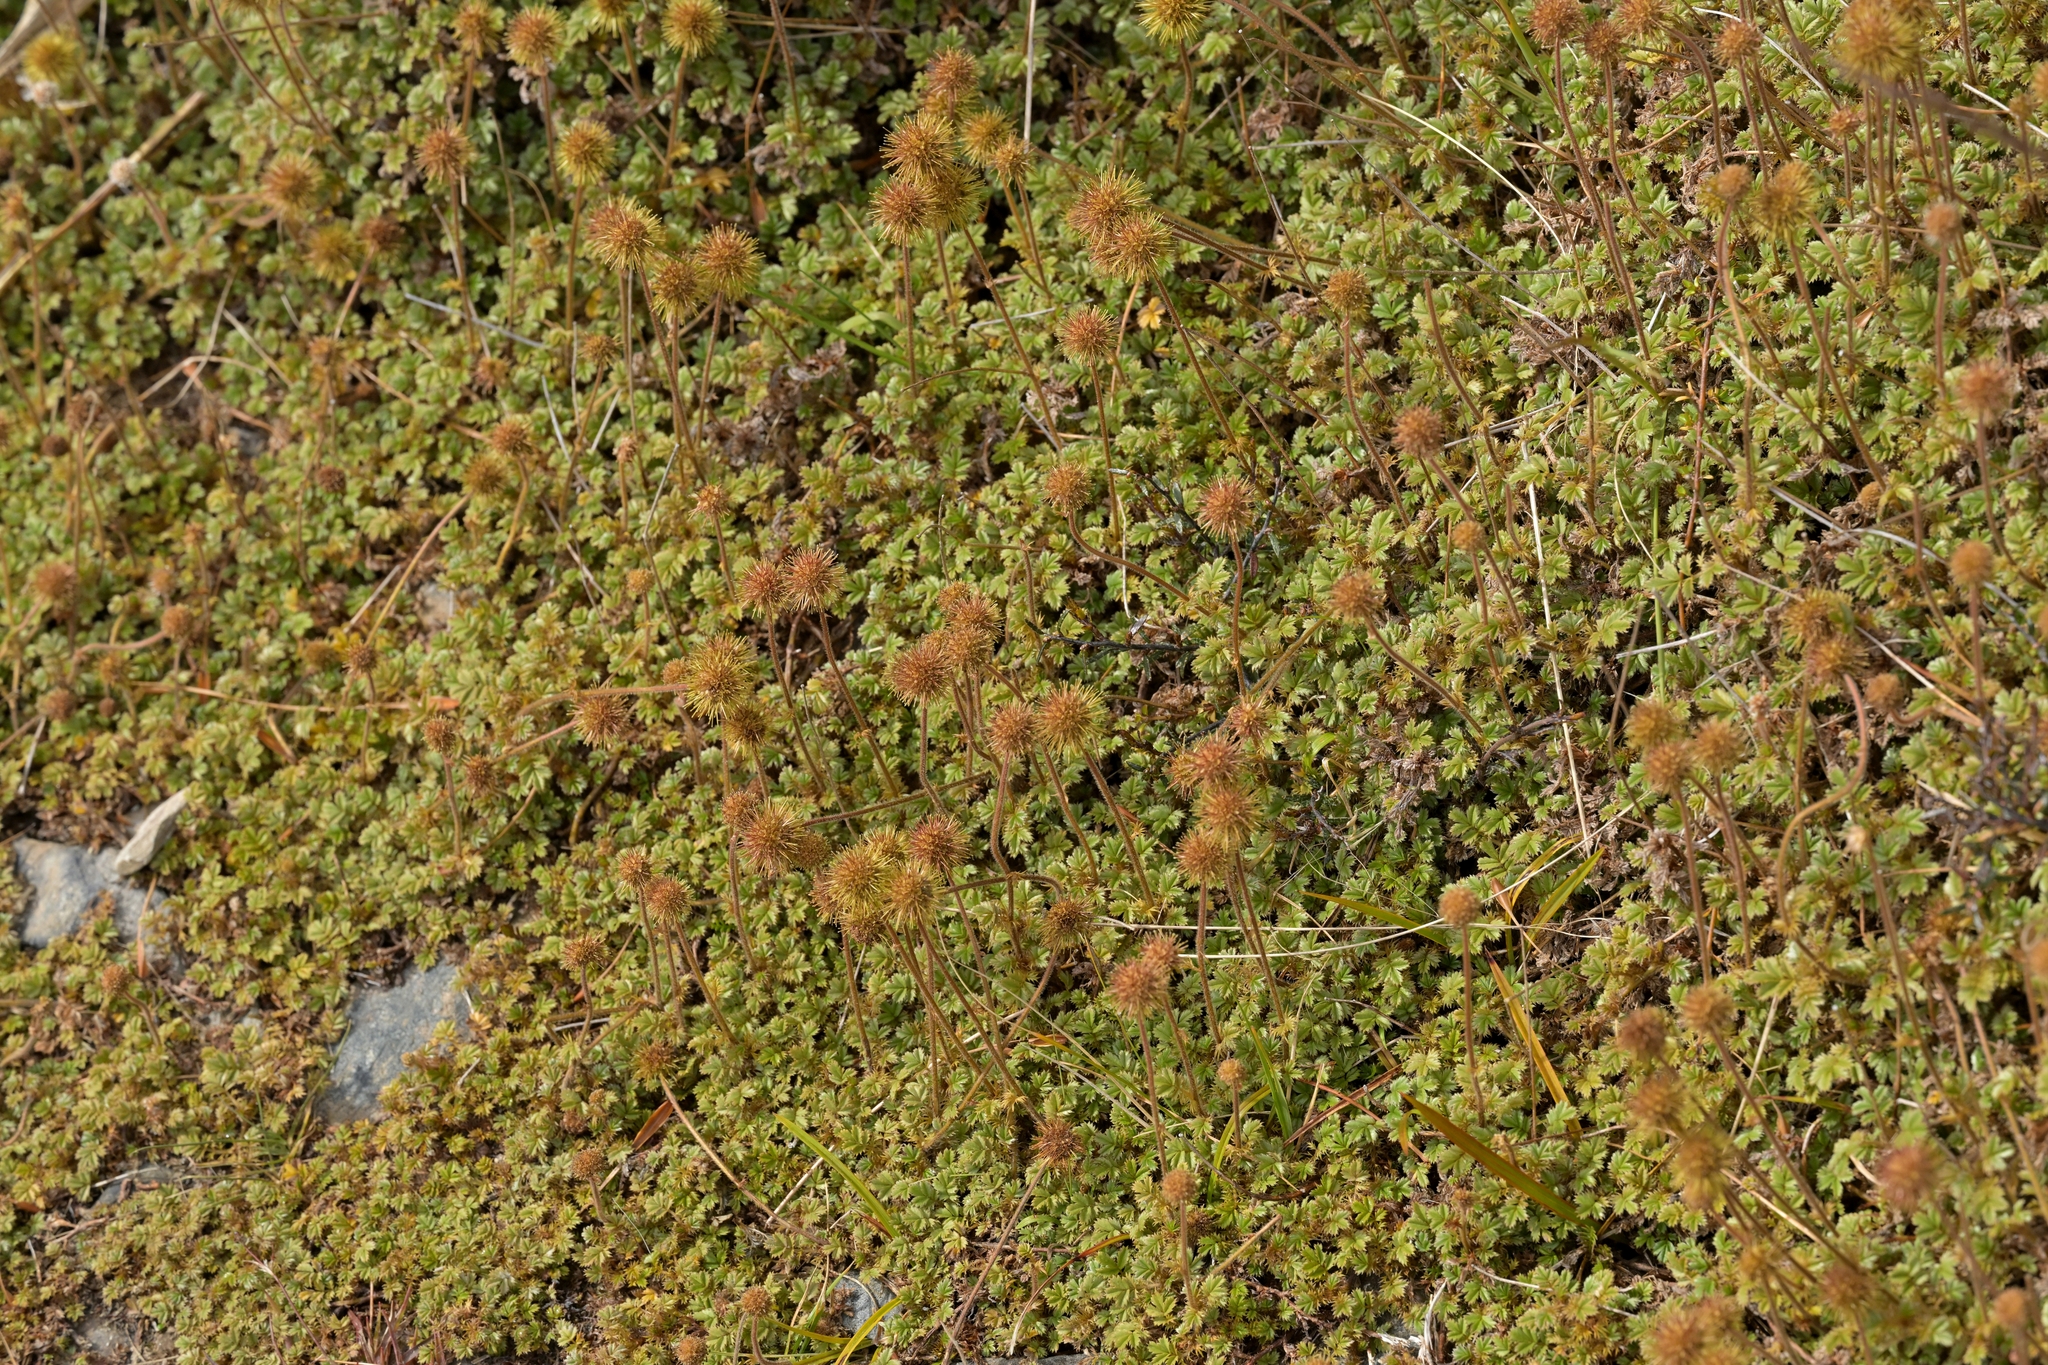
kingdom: Plantae
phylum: Tracheophyta
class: Magnoliopsida
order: Rosales
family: Rosaceae
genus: Acaena
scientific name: Acaena anserinifolia
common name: Bronze pirri-pirri-bur
